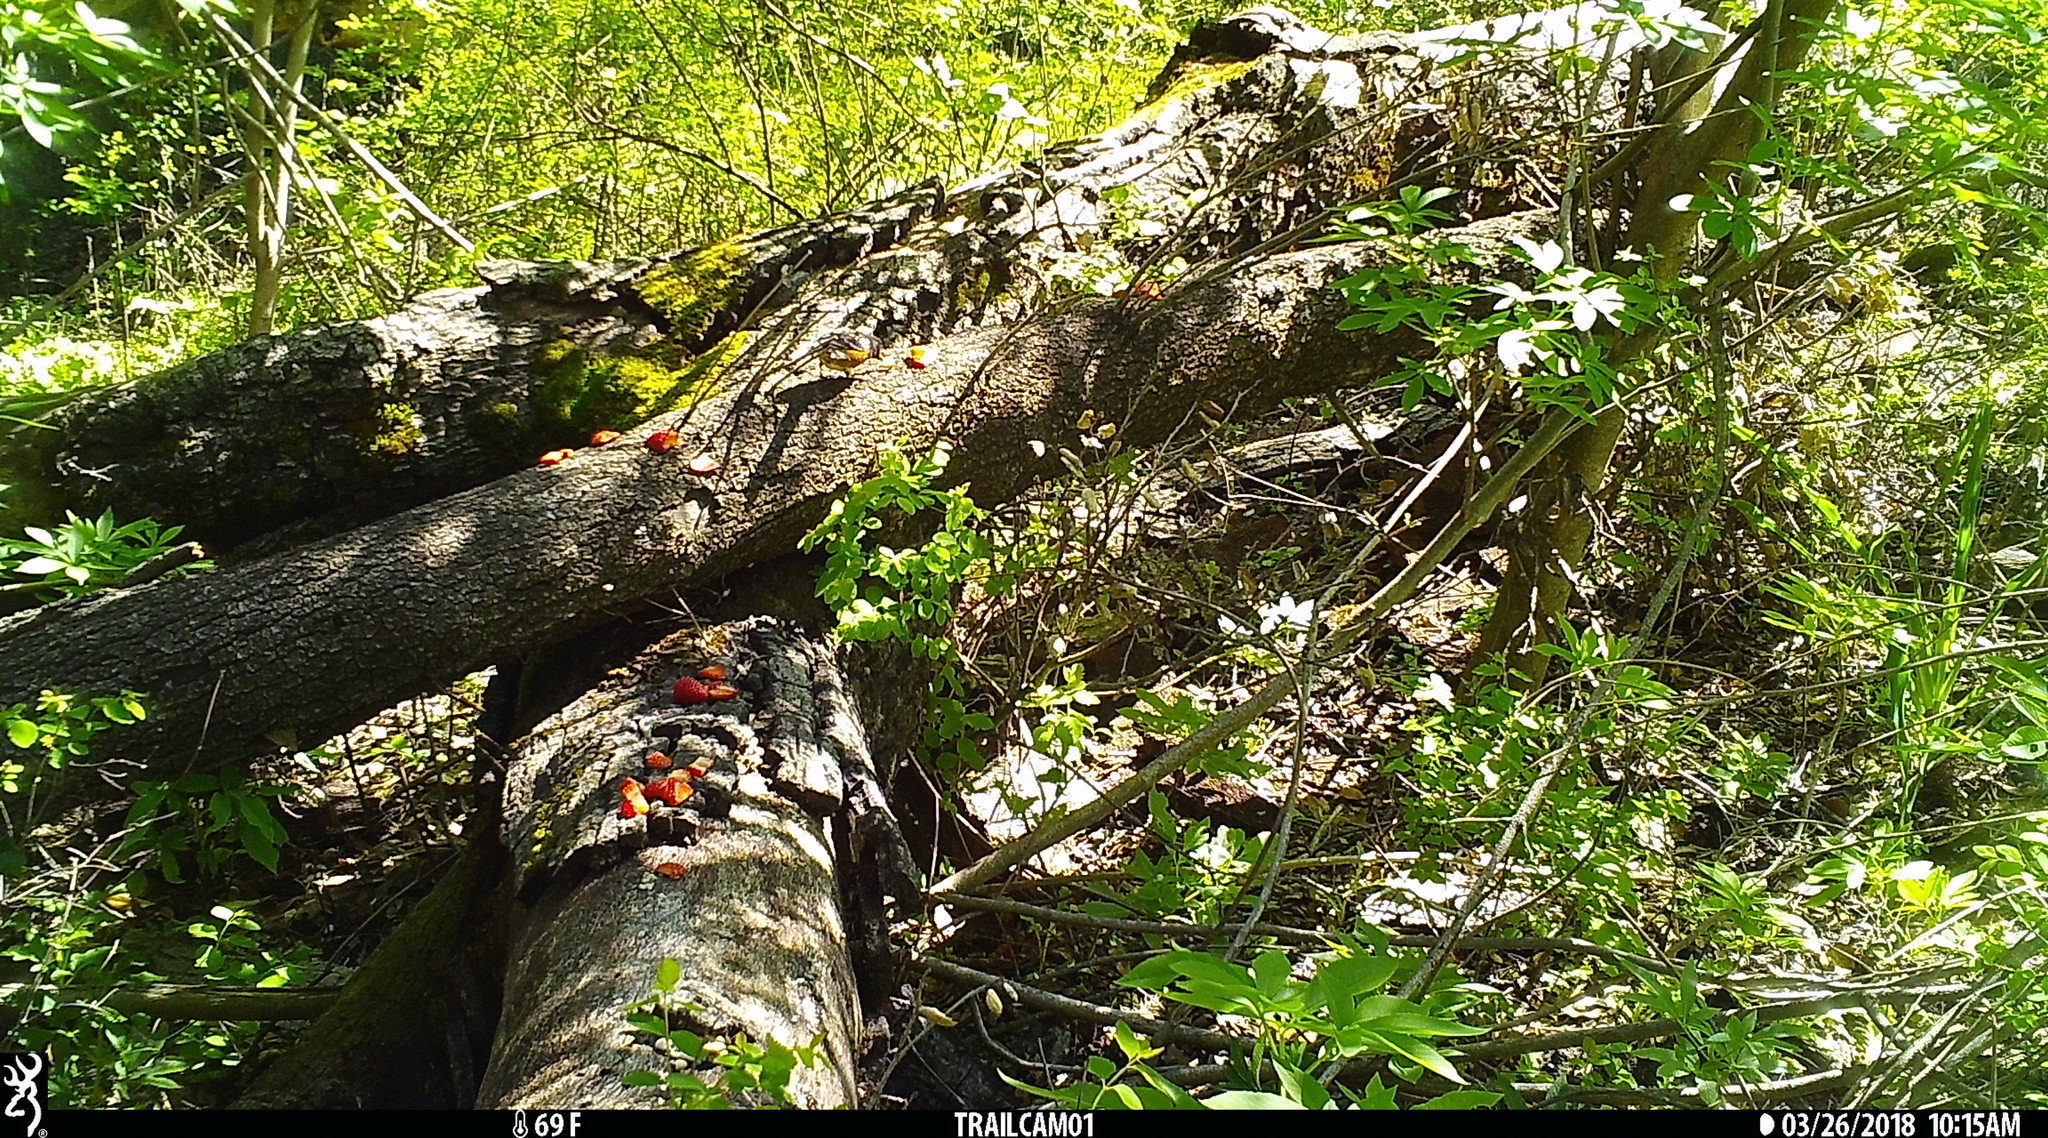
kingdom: Animalia
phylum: Chordata
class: Aves
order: Passeriformes
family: Passerellidae
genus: Pipilo
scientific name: Pipilo maculatus
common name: Spotted towhee
